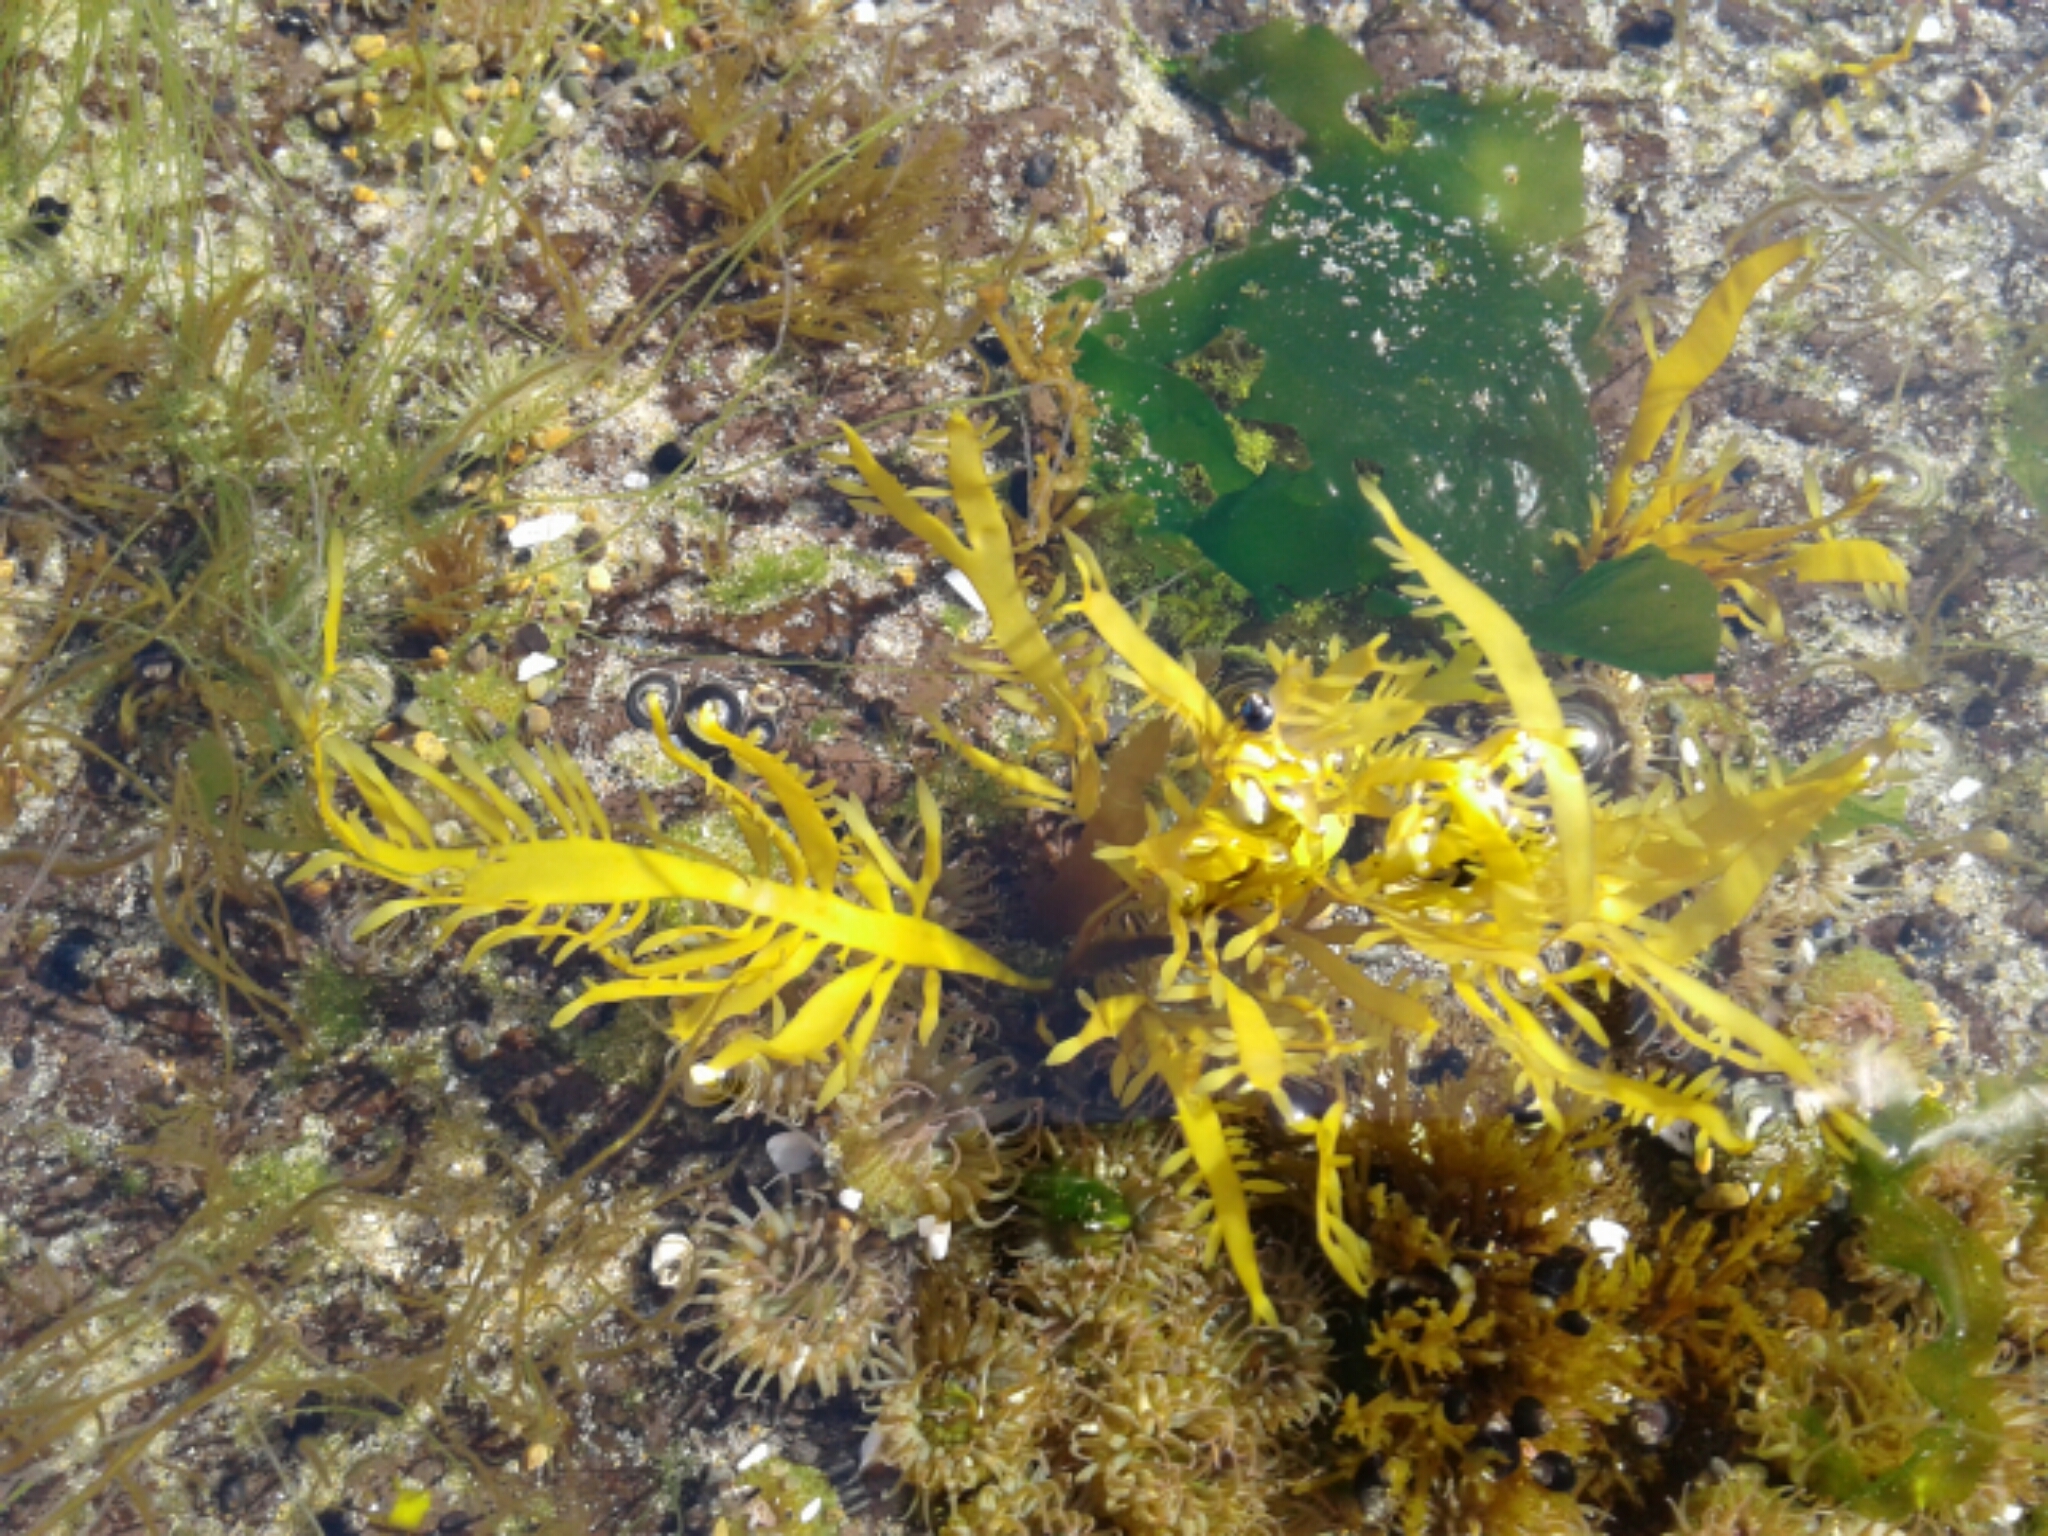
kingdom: Plantae
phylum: Rhodophyta
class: Florideophyceae
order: Halymeniales
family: Halymeniaceae
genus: Grateloupia
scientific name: Grateloupia Prionitis lanceolata
